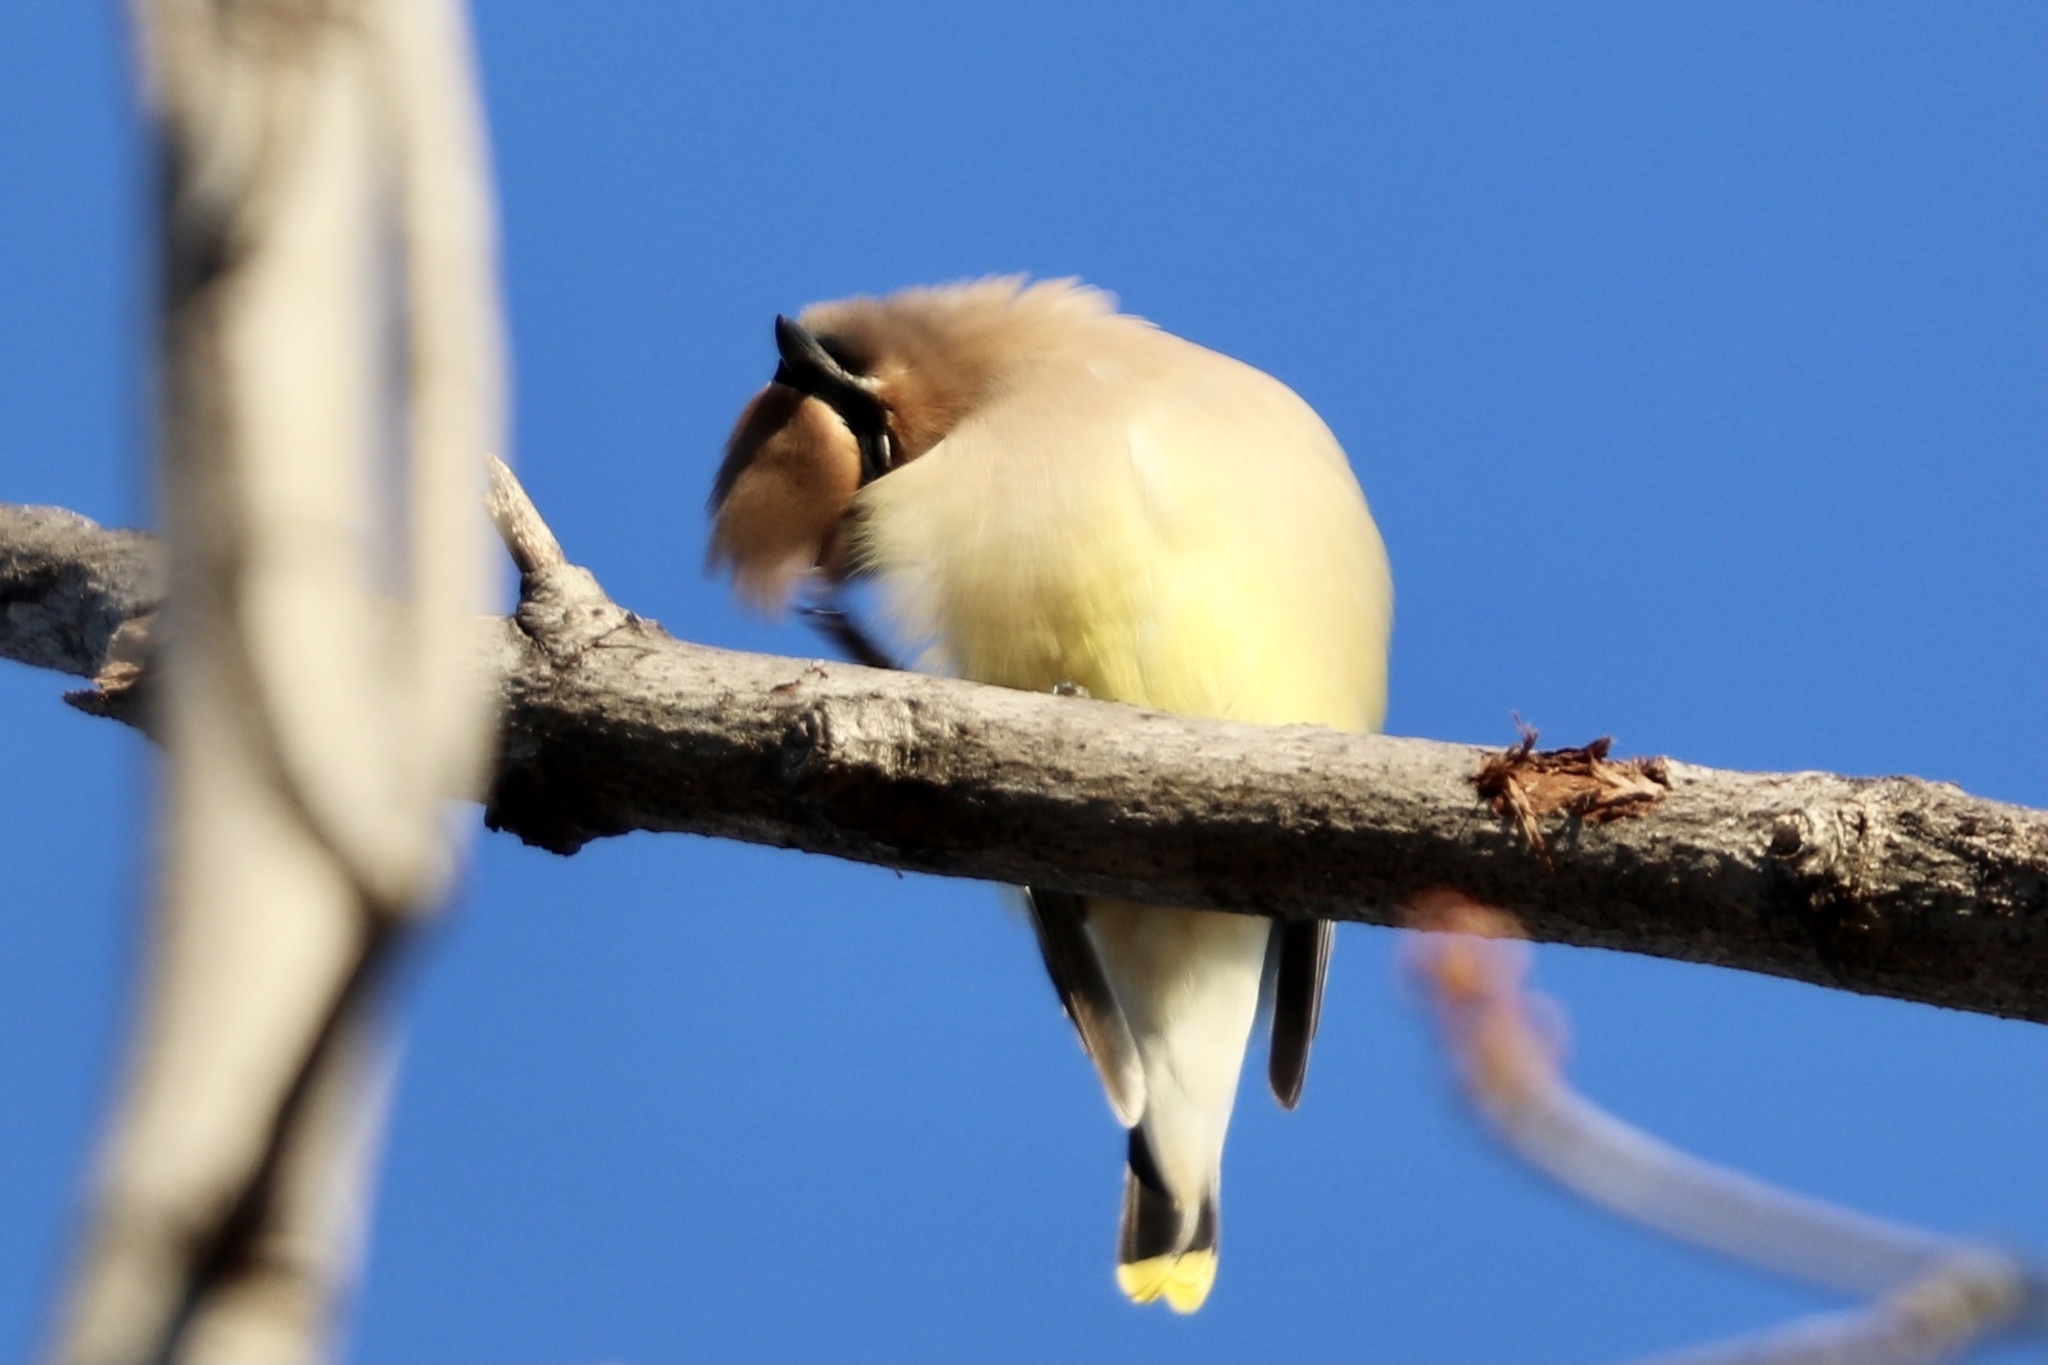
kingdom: Animalia
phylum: Chordata
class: Aves
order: Passeriformes
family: Bombycillidae
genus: Bombycilla
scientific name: Bombycilla cedrorum
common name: Cedar waxwing
